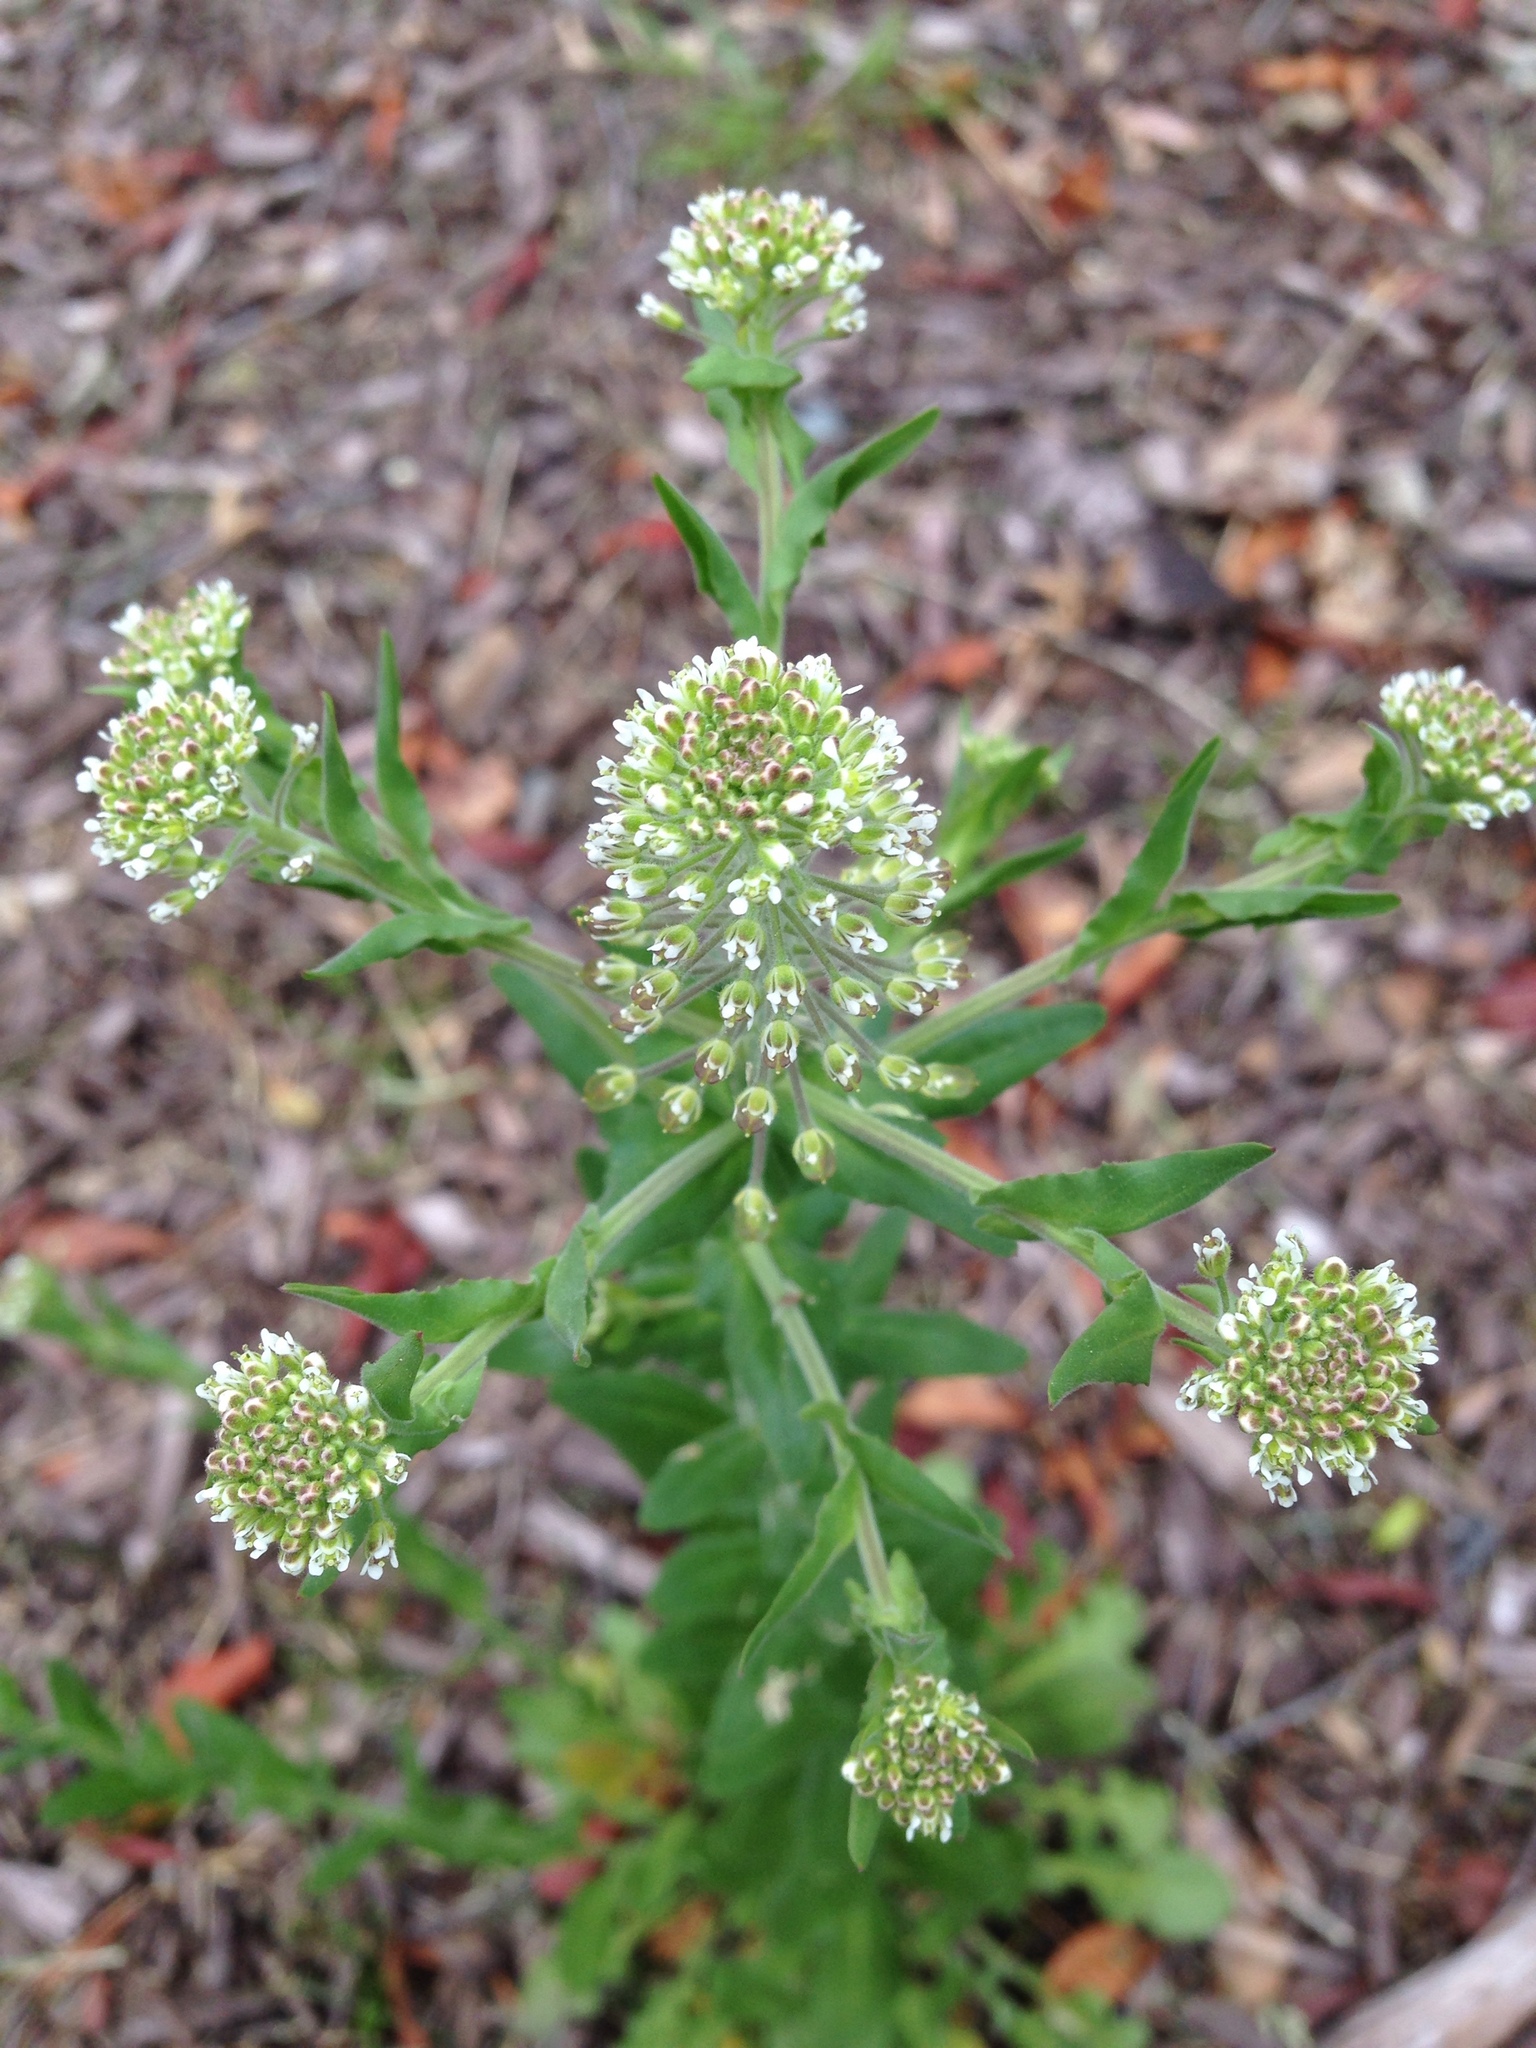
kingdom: Plantae
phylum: Tracheophyta
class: Magnoliopsida
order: Brassicales
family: Brassicaceae
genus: Lepidium
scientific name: Lepidium campestre
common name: Field pepperwort
